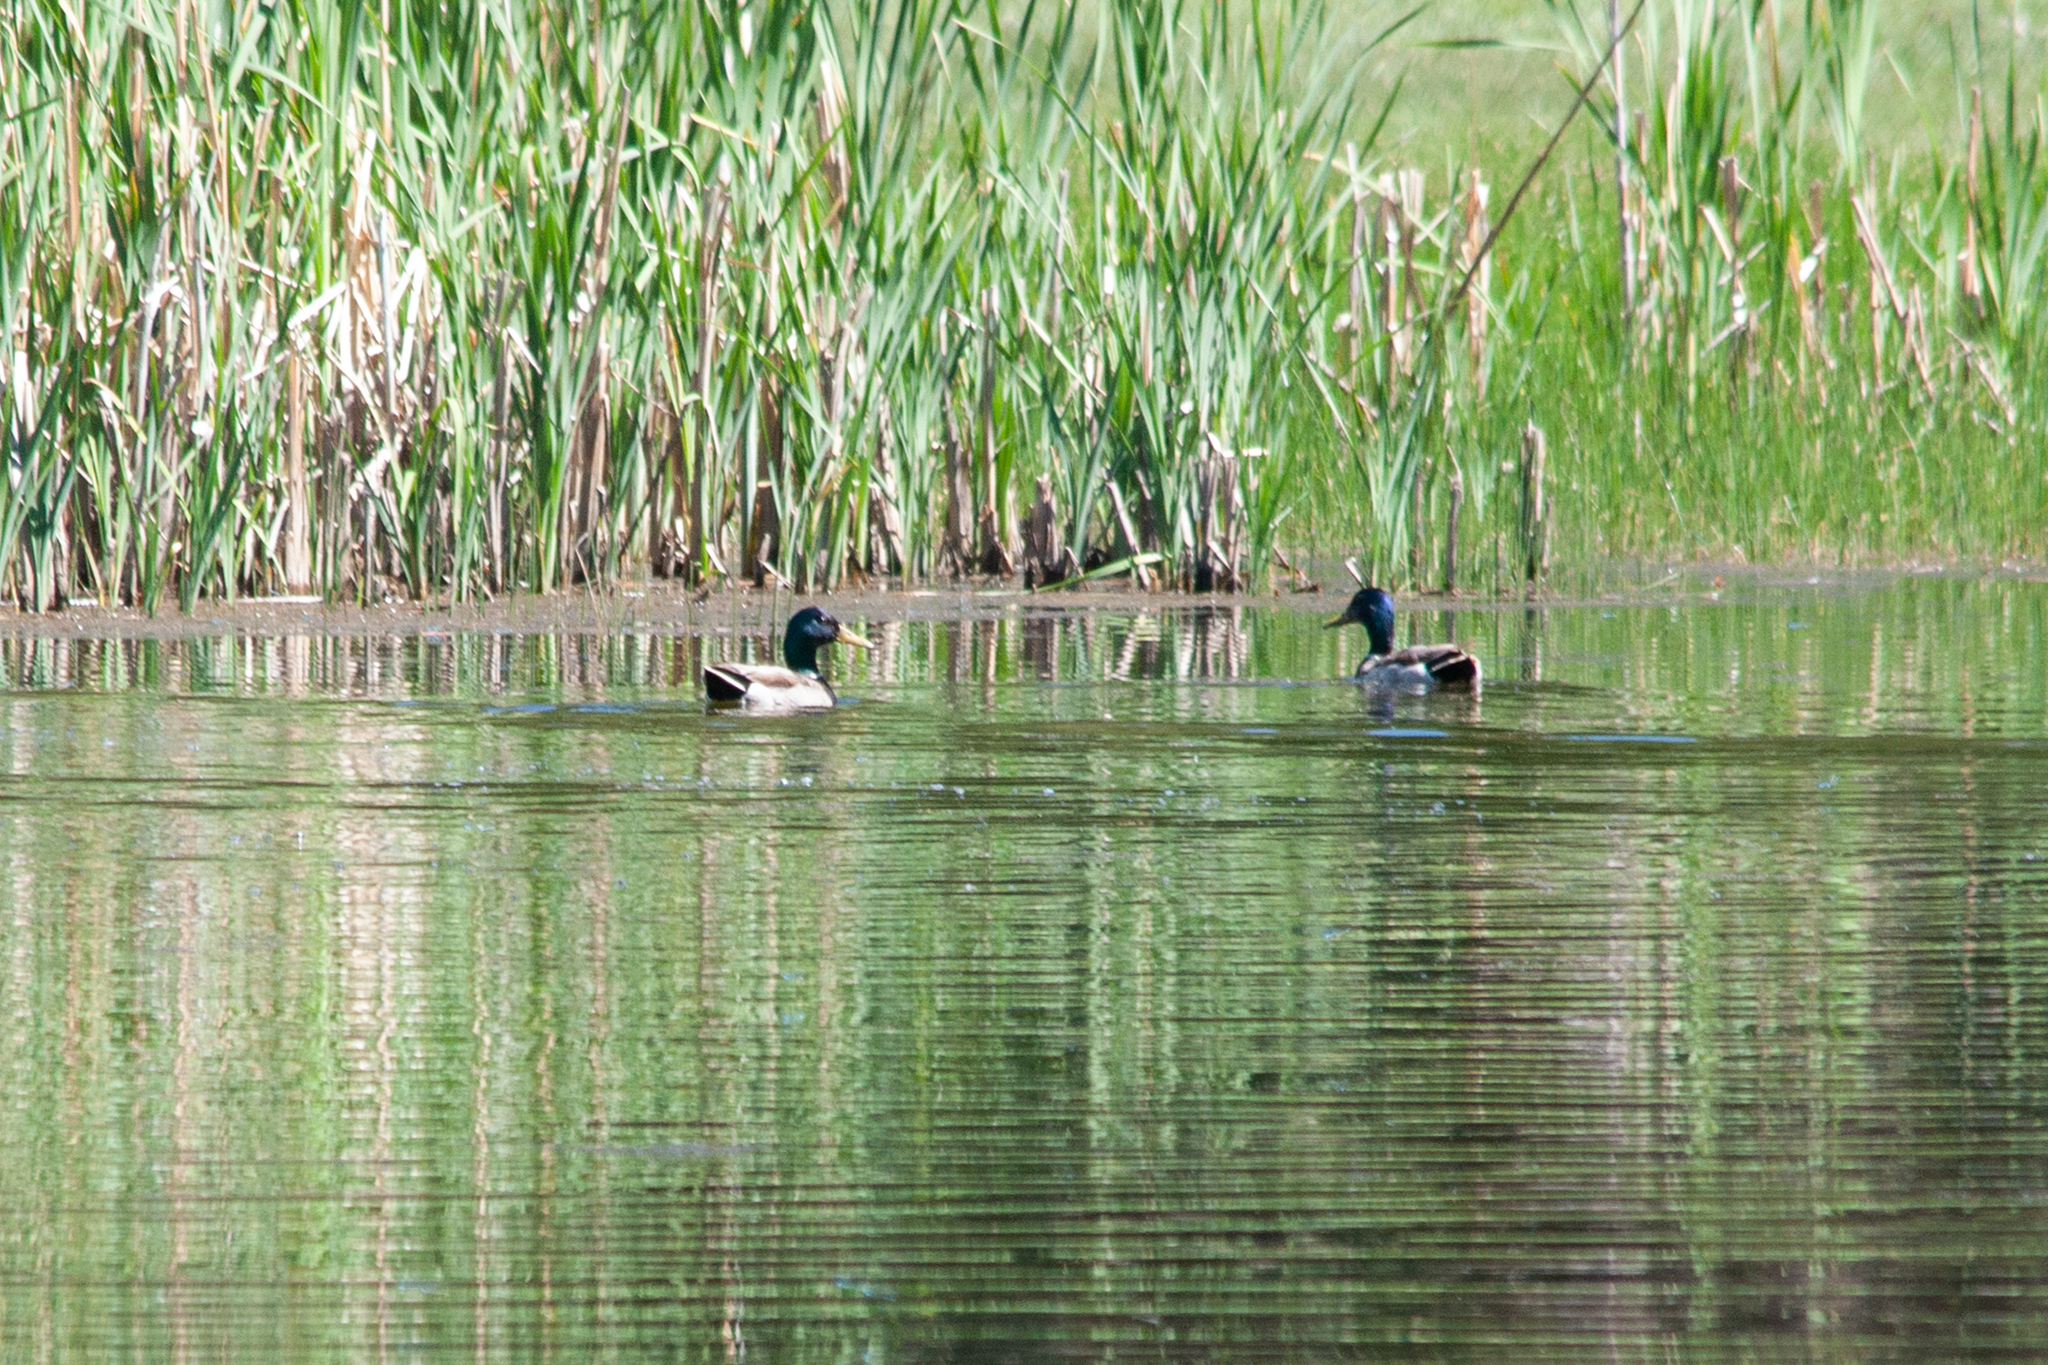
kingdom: Animalia
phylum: Chordata
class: Aves
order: Anseriformes
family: Anatidae
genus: Anas
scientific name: Anas platyrhynchos
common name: Mallard
